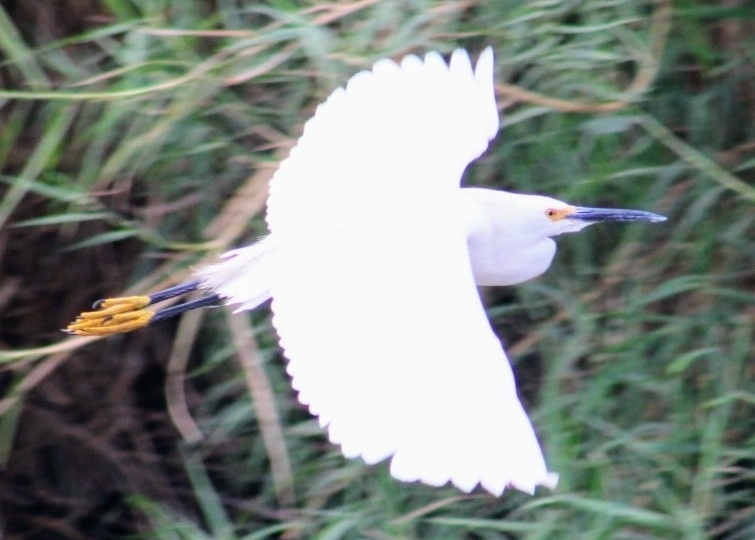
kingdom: Animalia
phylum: Chordata
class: Aves
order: Pelecaniformes
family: Ardeidae
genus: Egretta
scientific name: Egretta thula
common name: Snowy egret
